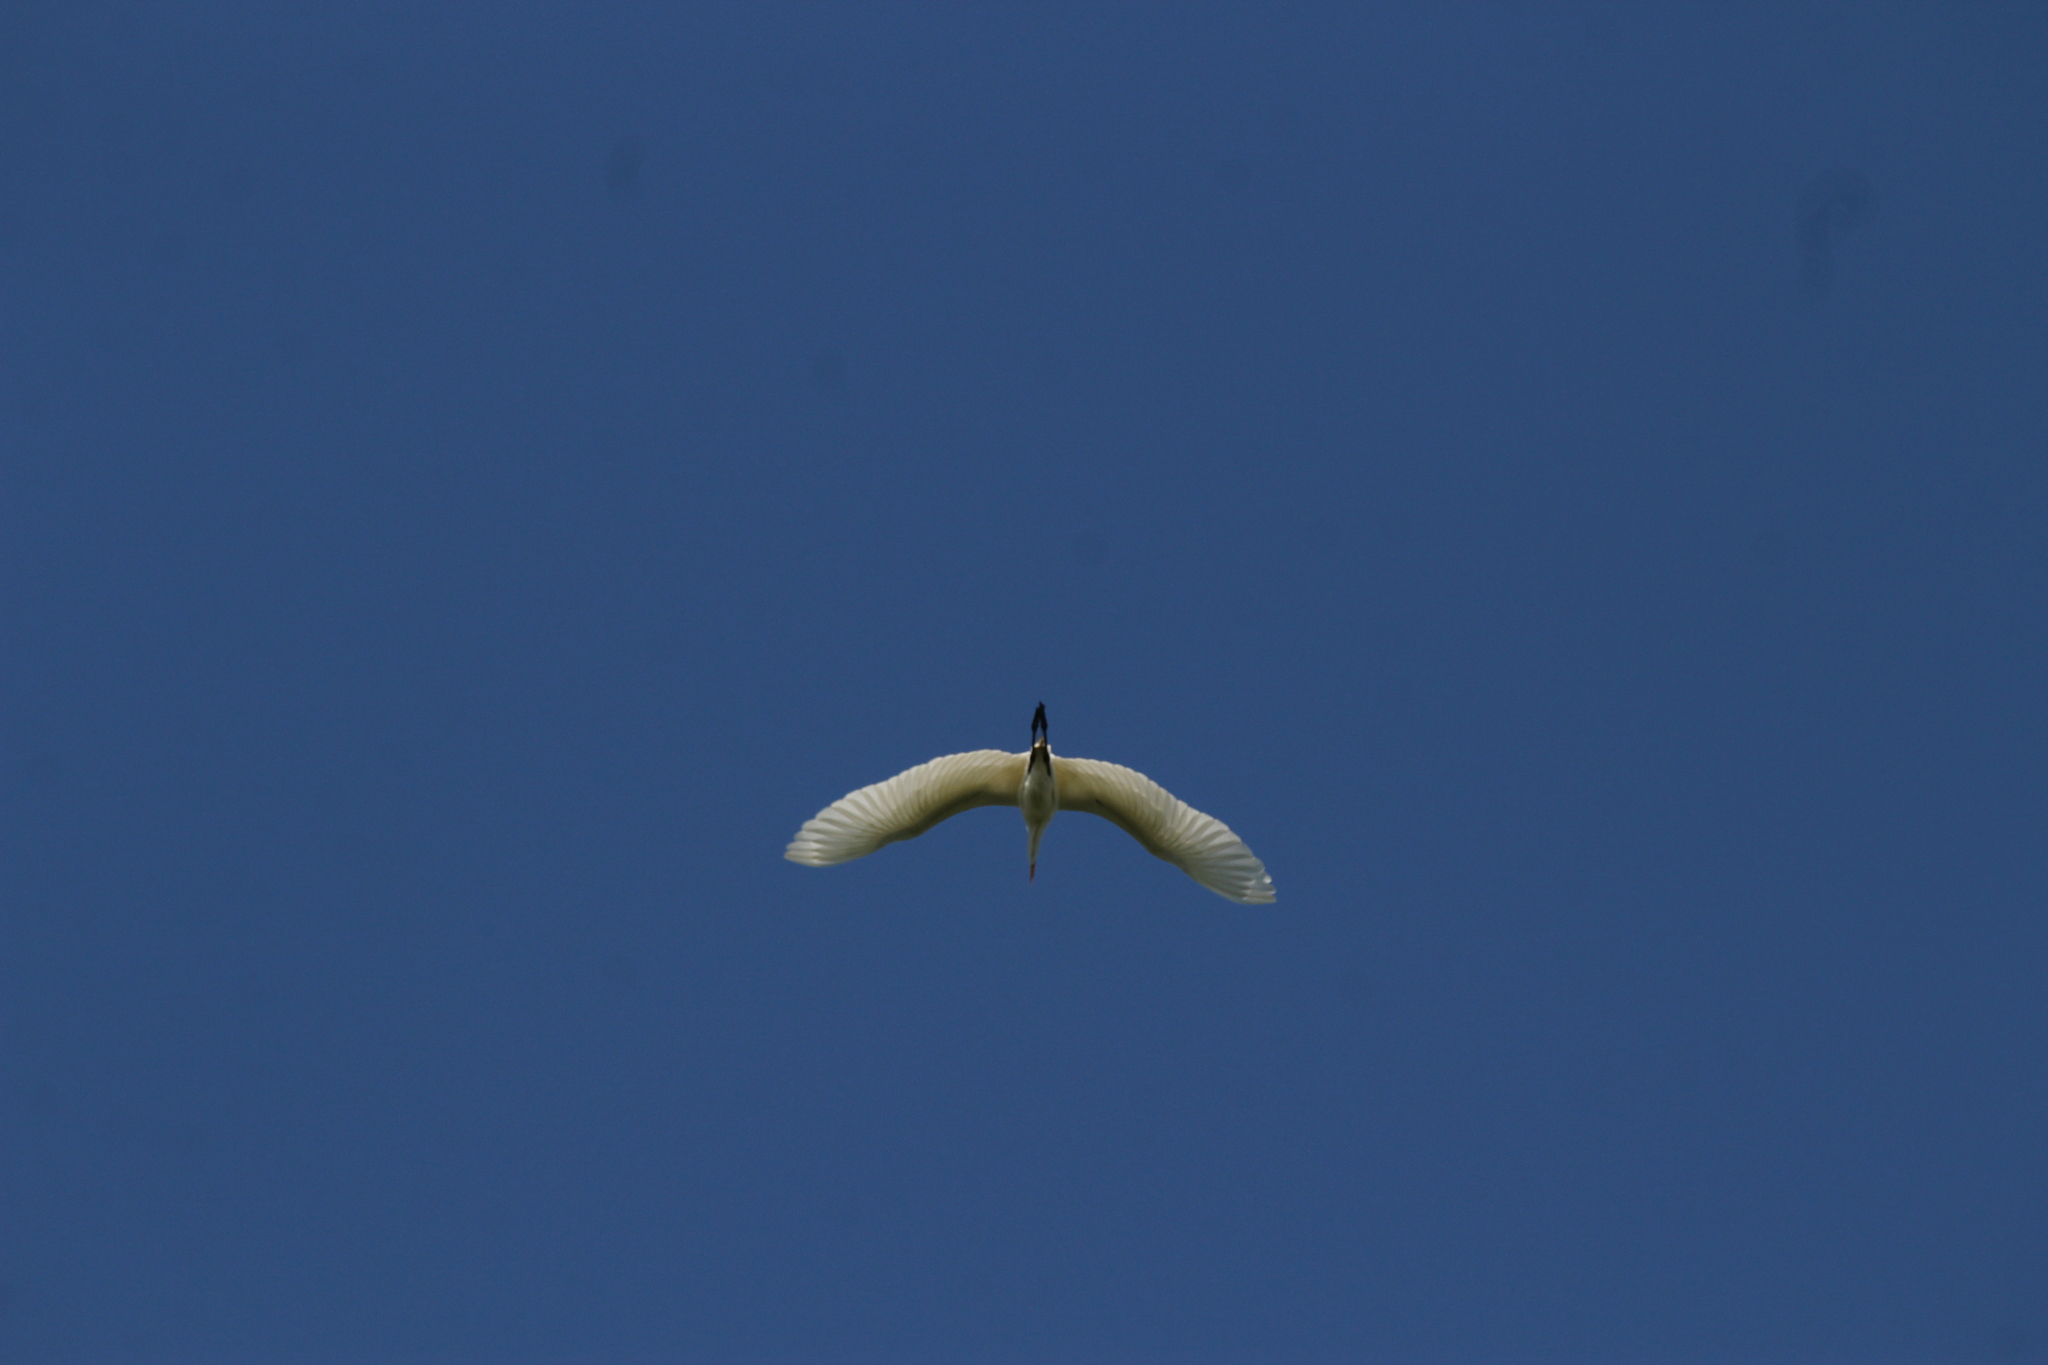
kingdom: Animalia
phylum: Chordata
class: Aves
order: Pelecaniformes
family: Ardeidae
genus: Ardea
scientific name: Ardea alba
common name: Great egret
